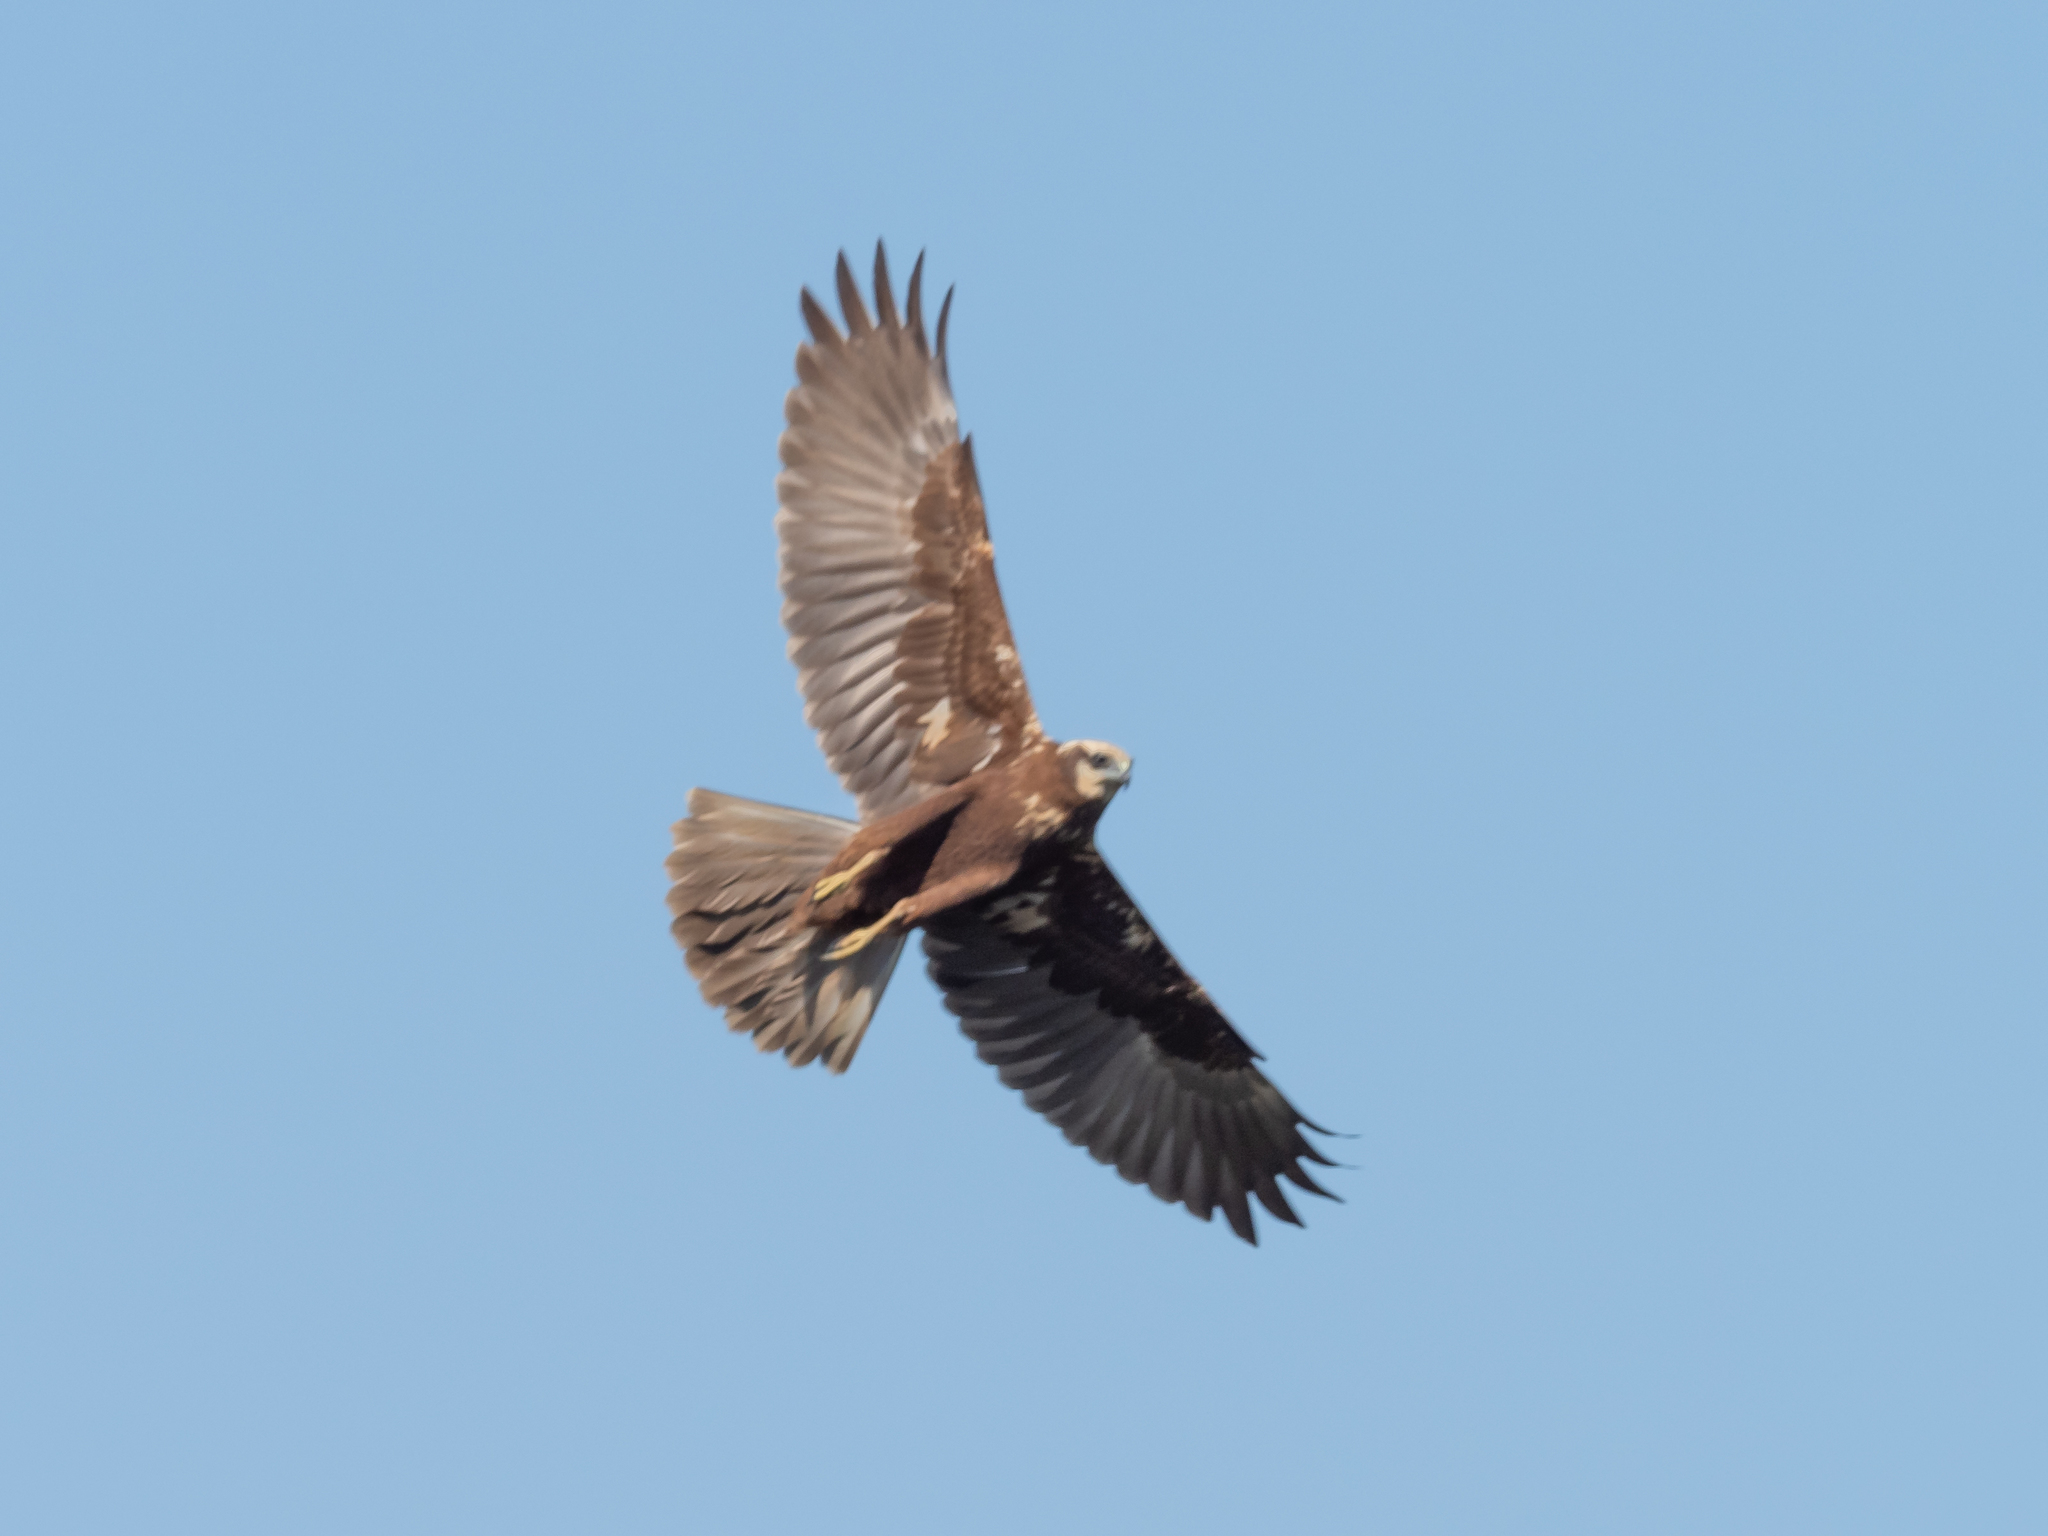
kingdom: Animalia
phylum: Chordata
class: Aves
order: Accipitriformes
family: Accipitridae
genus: Circus
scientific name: Circus aeruginosus
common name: Western marsh harrier
